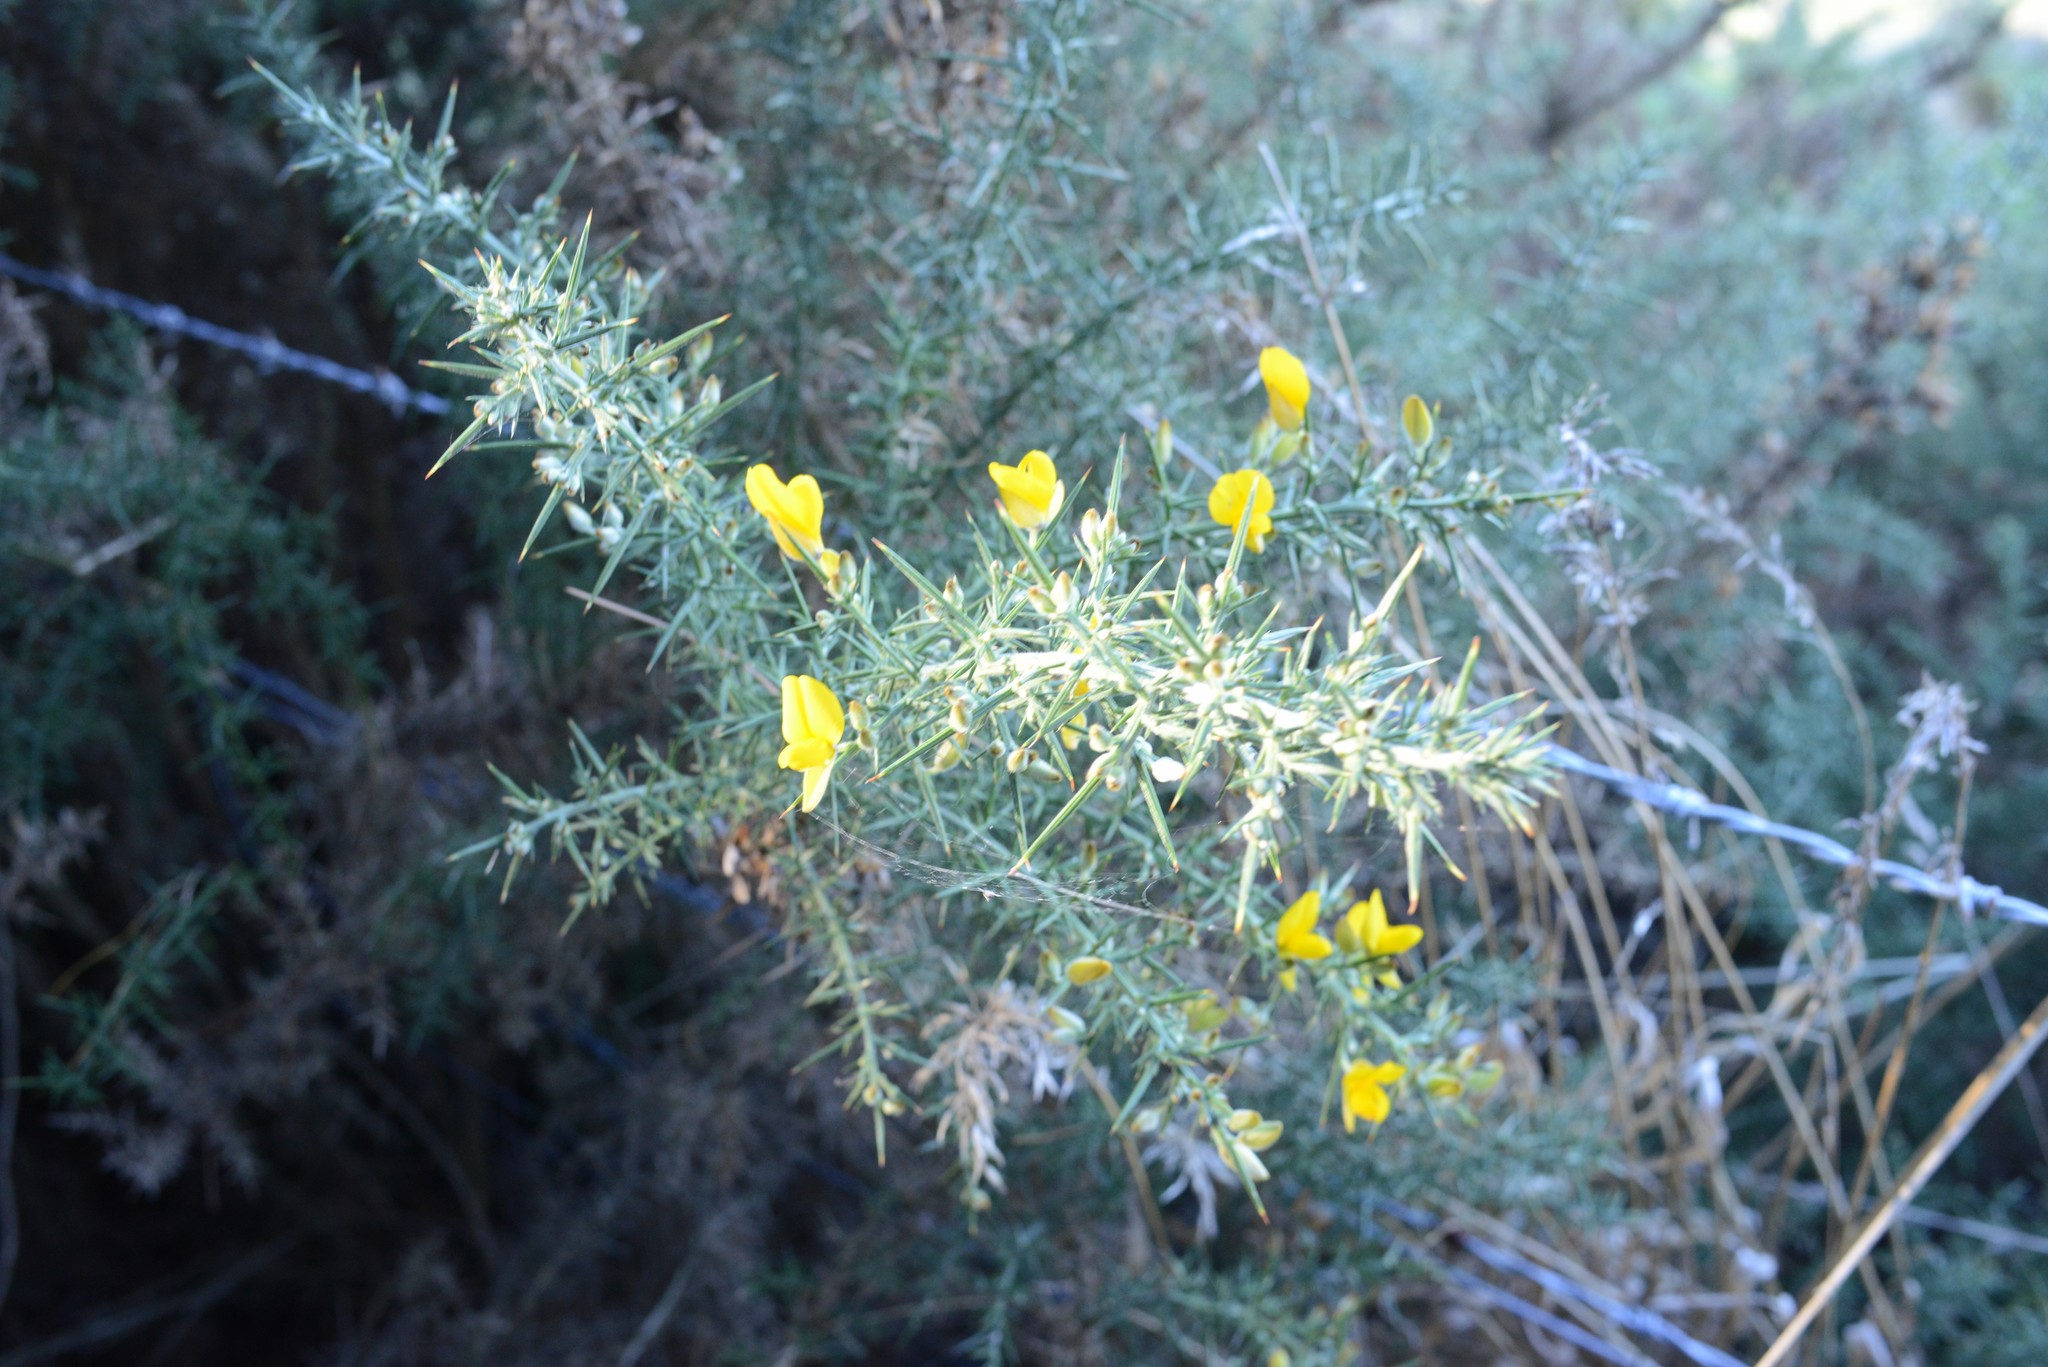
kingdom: Plantae
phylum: Tracheophyta
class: Magnoliopsida
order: Fabales
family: Fabaceae
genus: Ulex
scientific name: Ulex europaeus
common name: Common gorse
